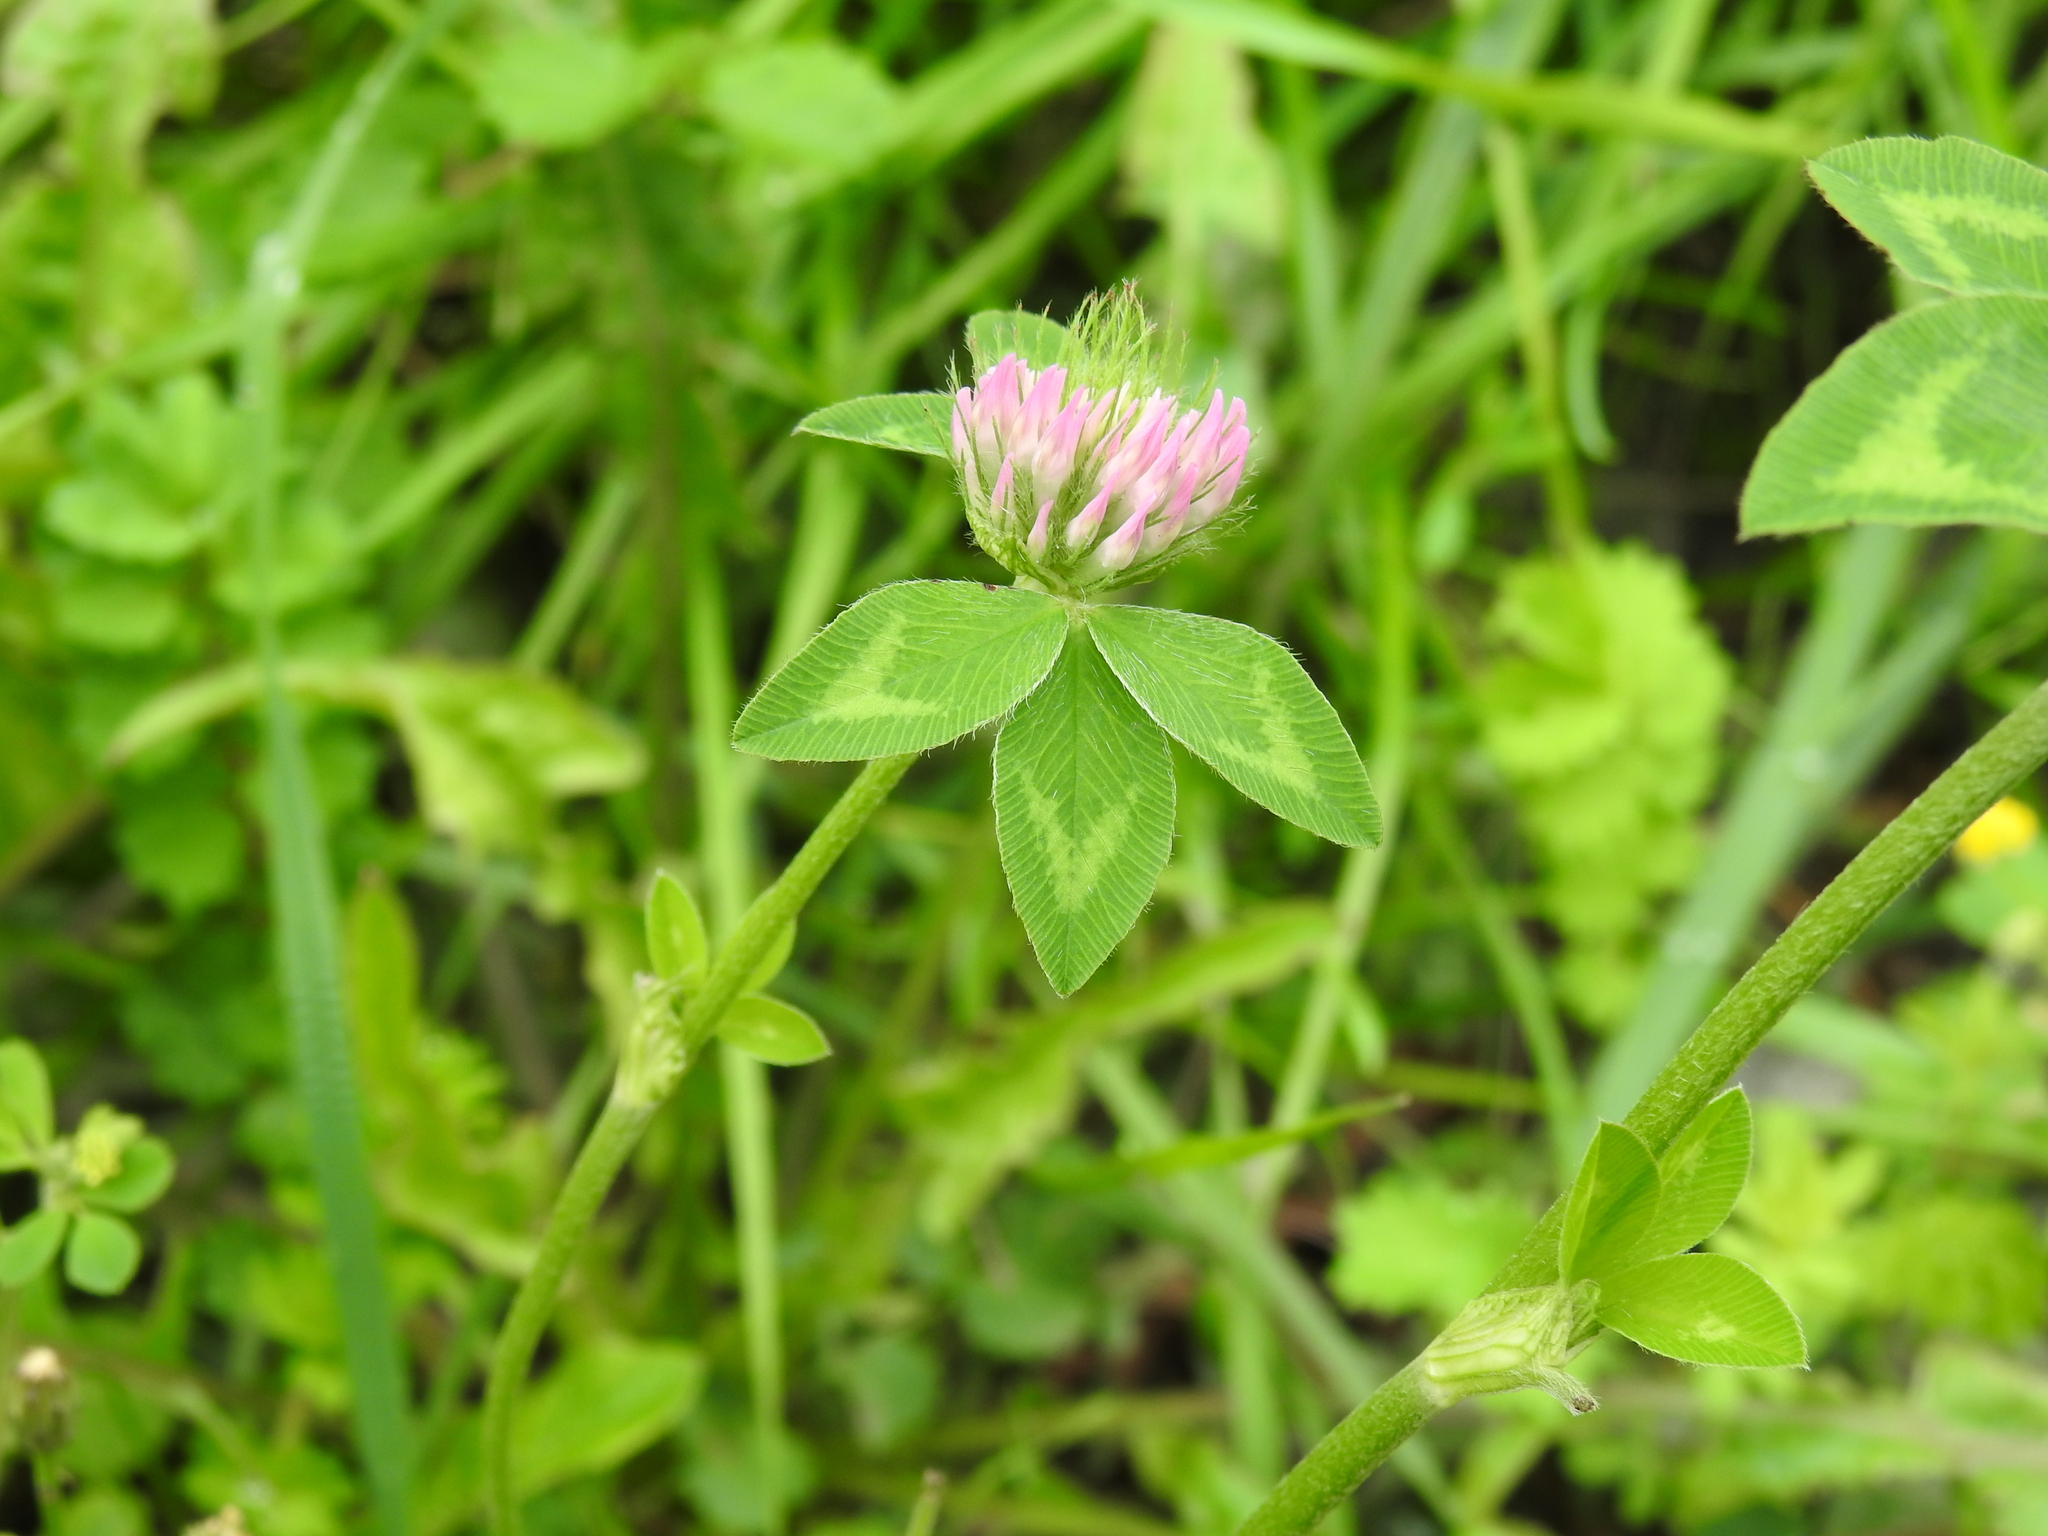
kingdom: Plantae
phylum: Tracheophyta
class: Magnoliopsida
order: Fabales
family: Fabaceae
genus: Trifolium
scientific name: Trifolium pratense
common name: Red clover
